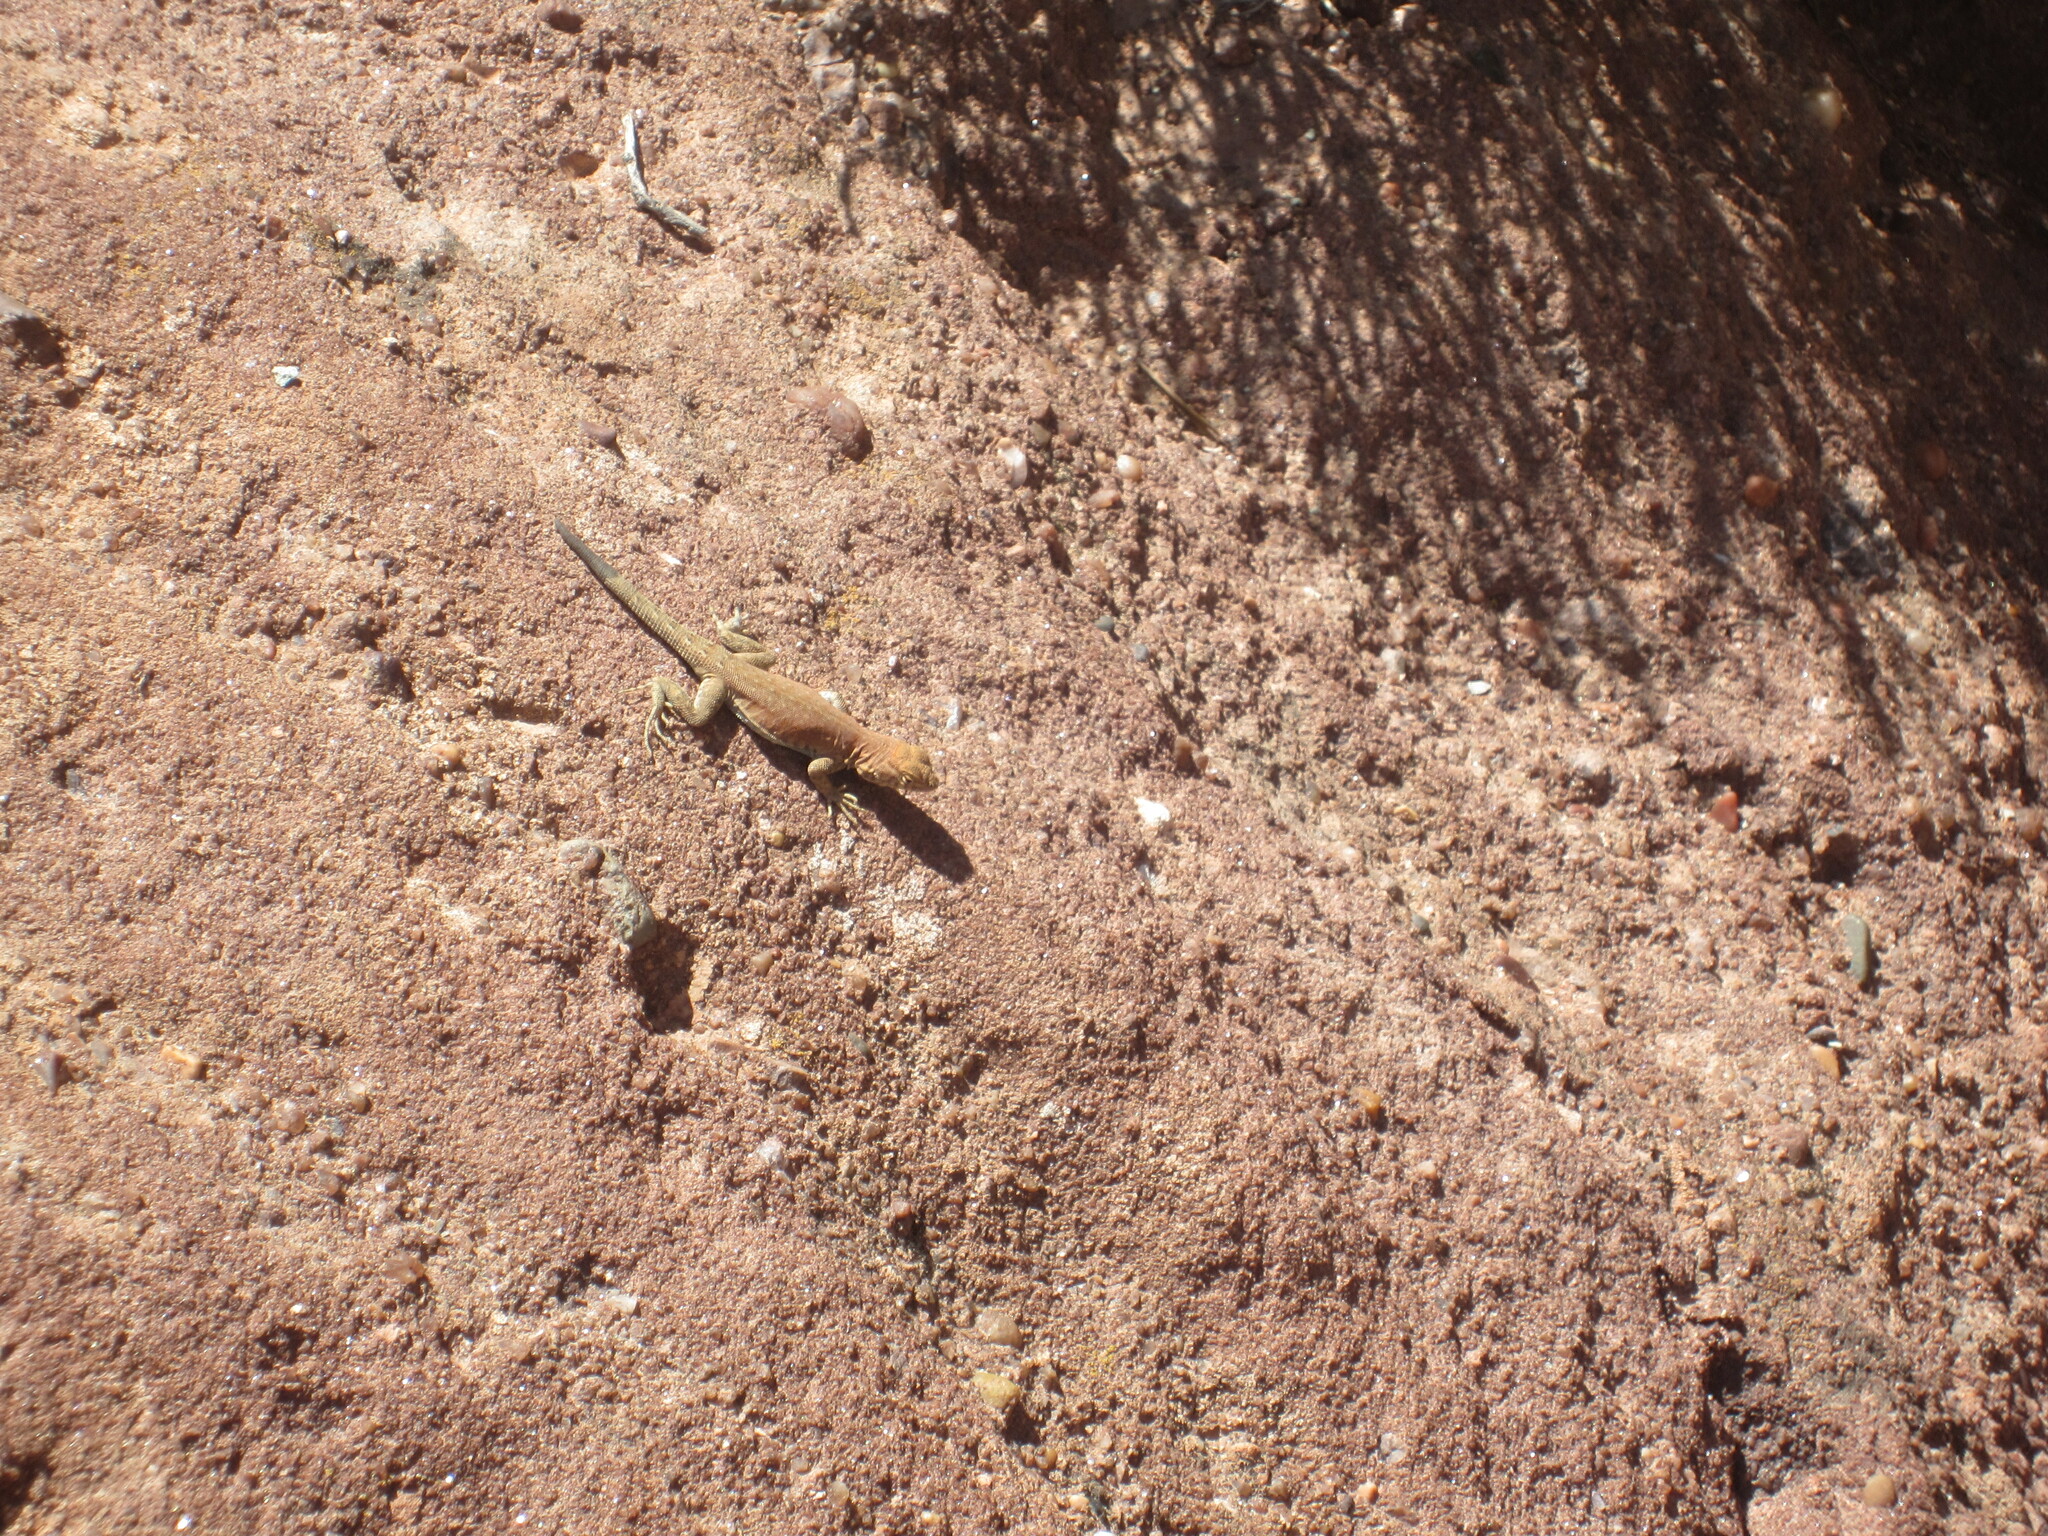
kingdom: Animalia
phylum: Chordata
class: Squamata
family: Phrynosomatidae
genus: Uta
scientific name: Uta stansburiana
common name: Side-blotched lizard
